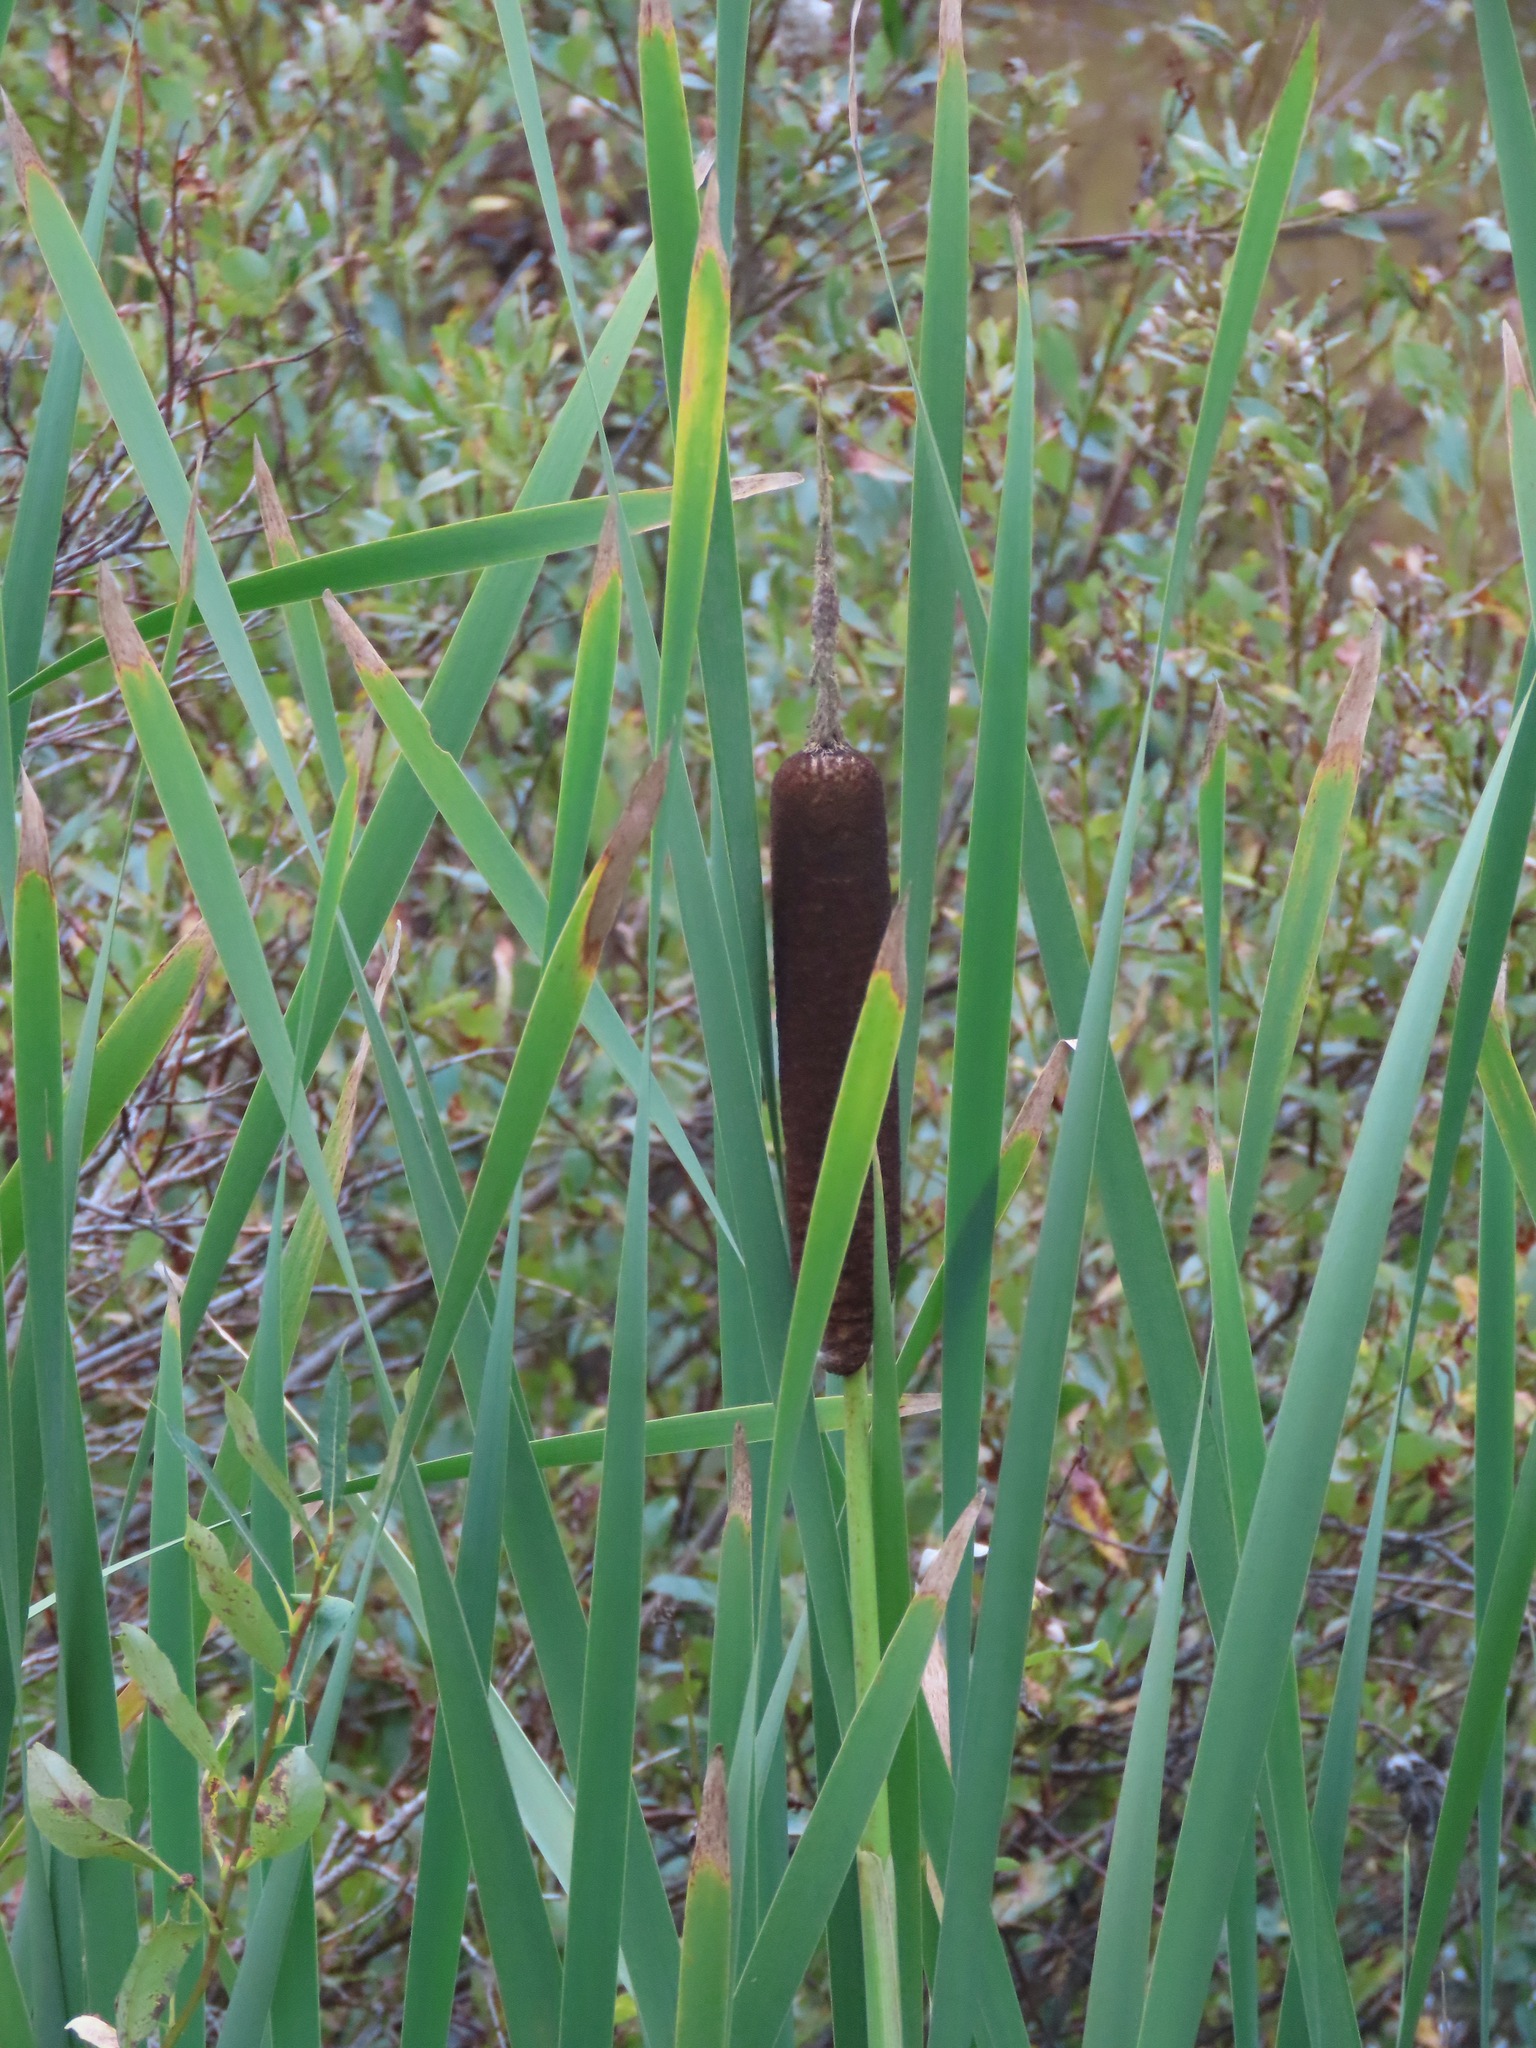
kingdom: Plantae
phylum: Tracheophyta
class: Liliopsida
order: Poales
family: Typhaceae
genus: Typha
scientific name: Typha latifolia
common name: Broadleaf cattail
